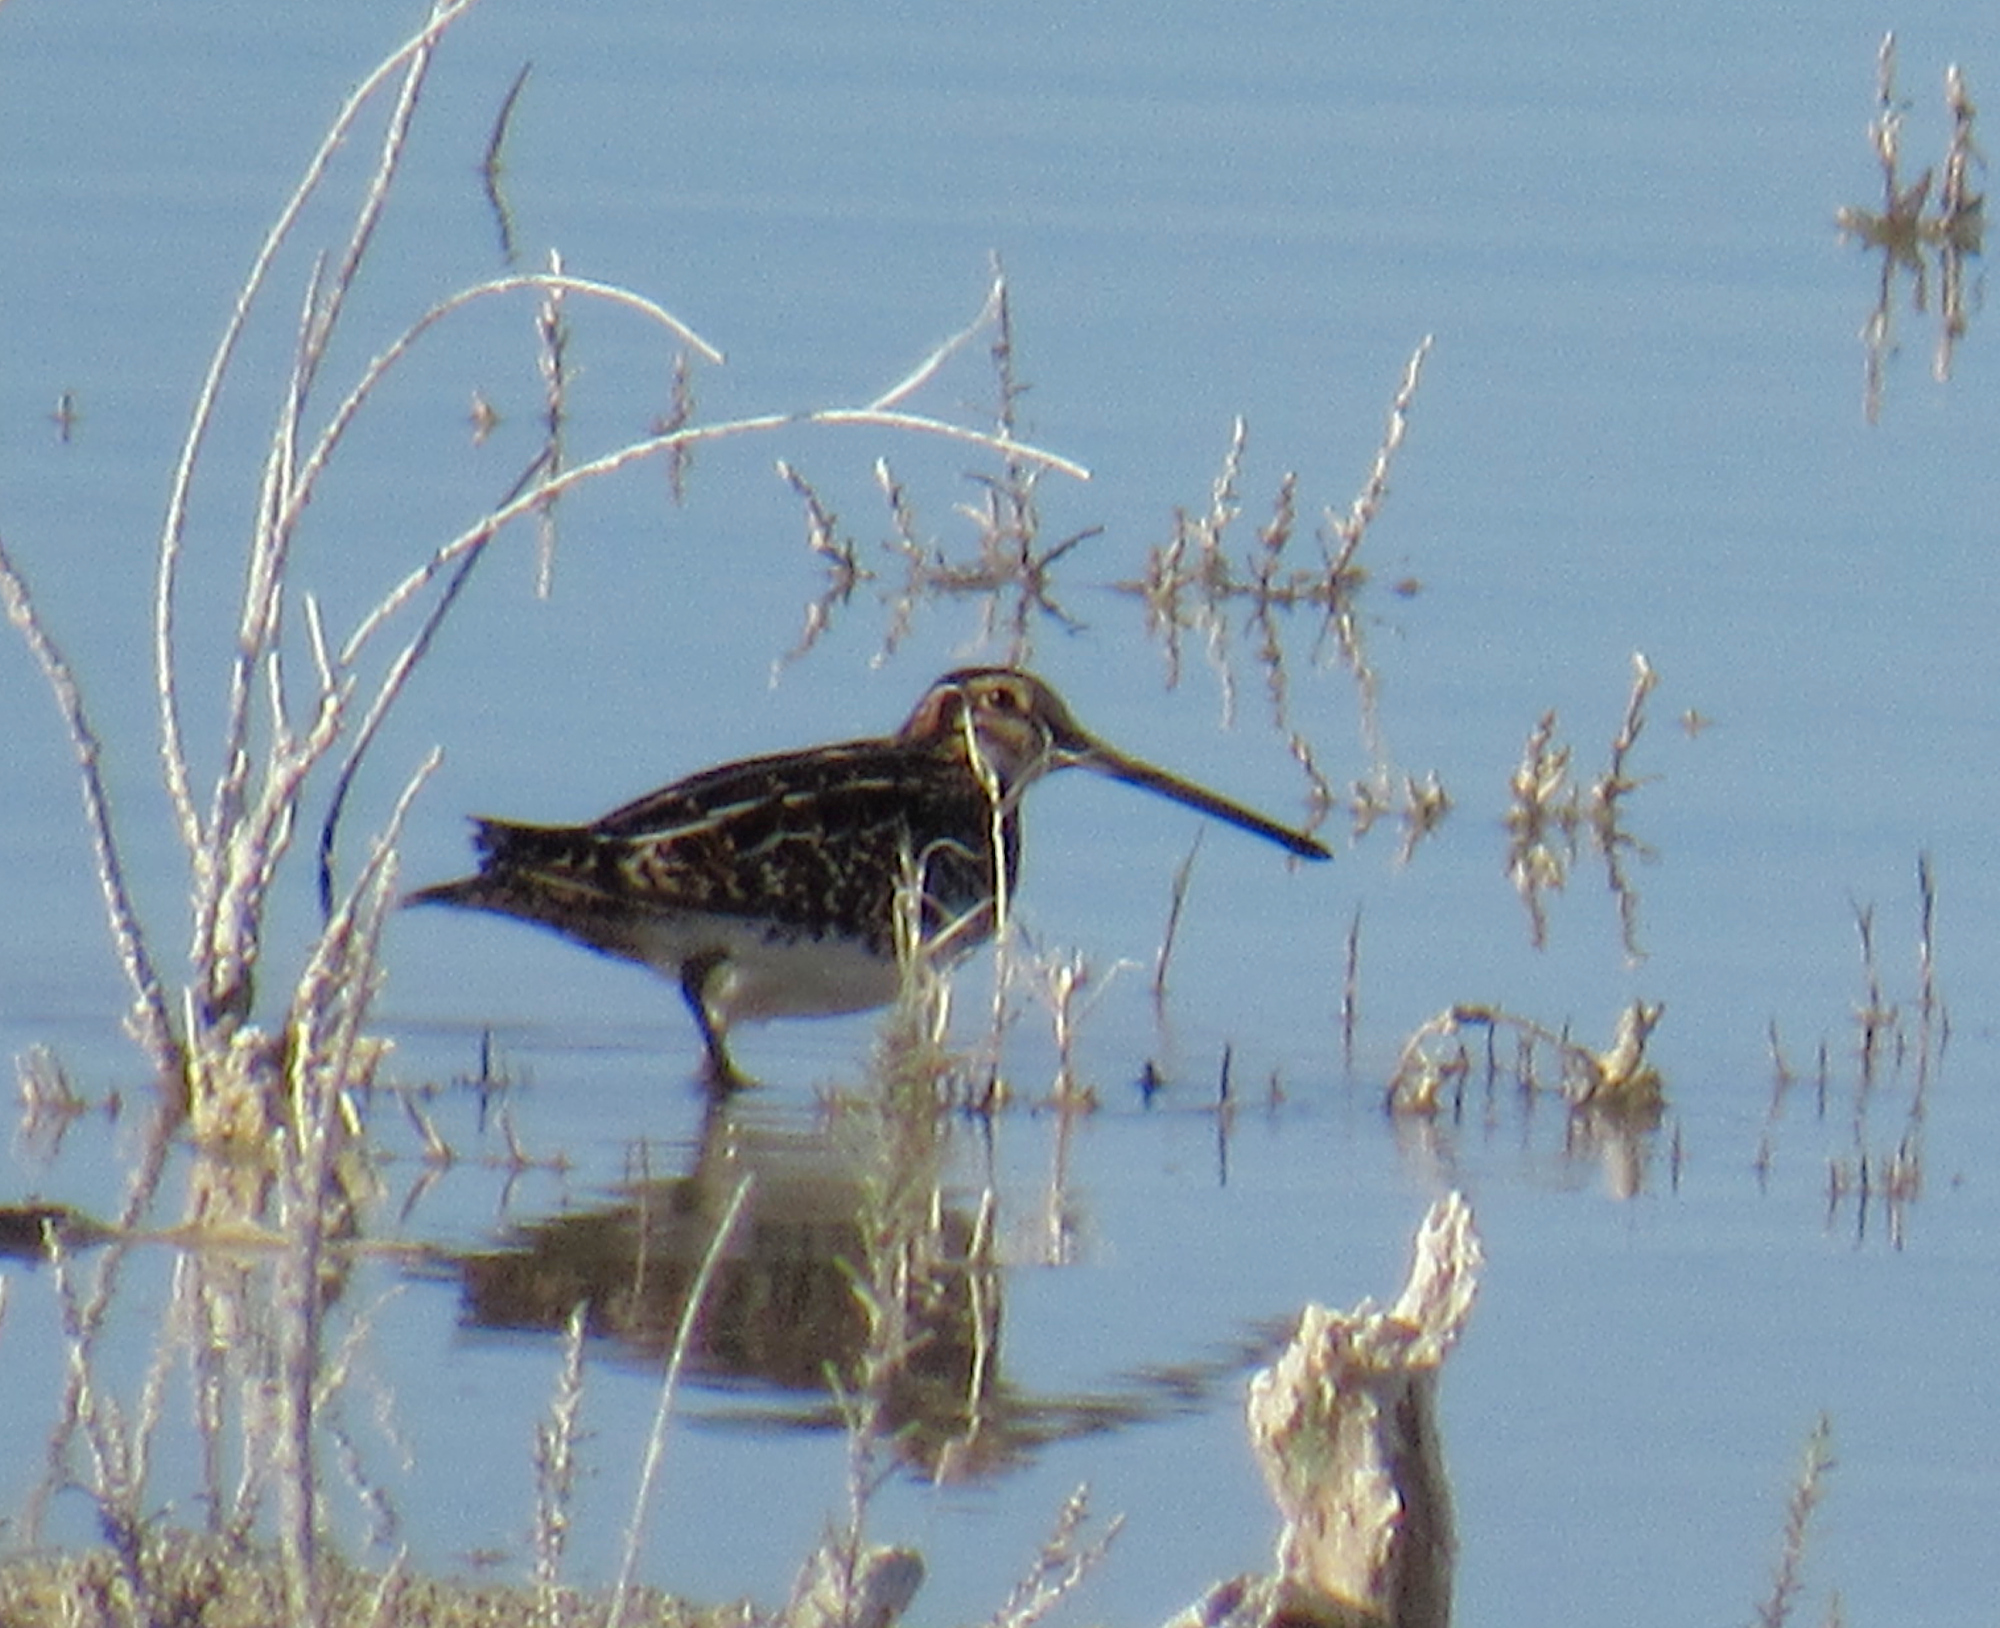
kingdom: Animalia
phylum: Chordata
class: Aves
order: Charadriiformes
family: Scolopacidae
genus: Gallinago
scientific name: Gallinago delicata
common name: Wilson's snipe
